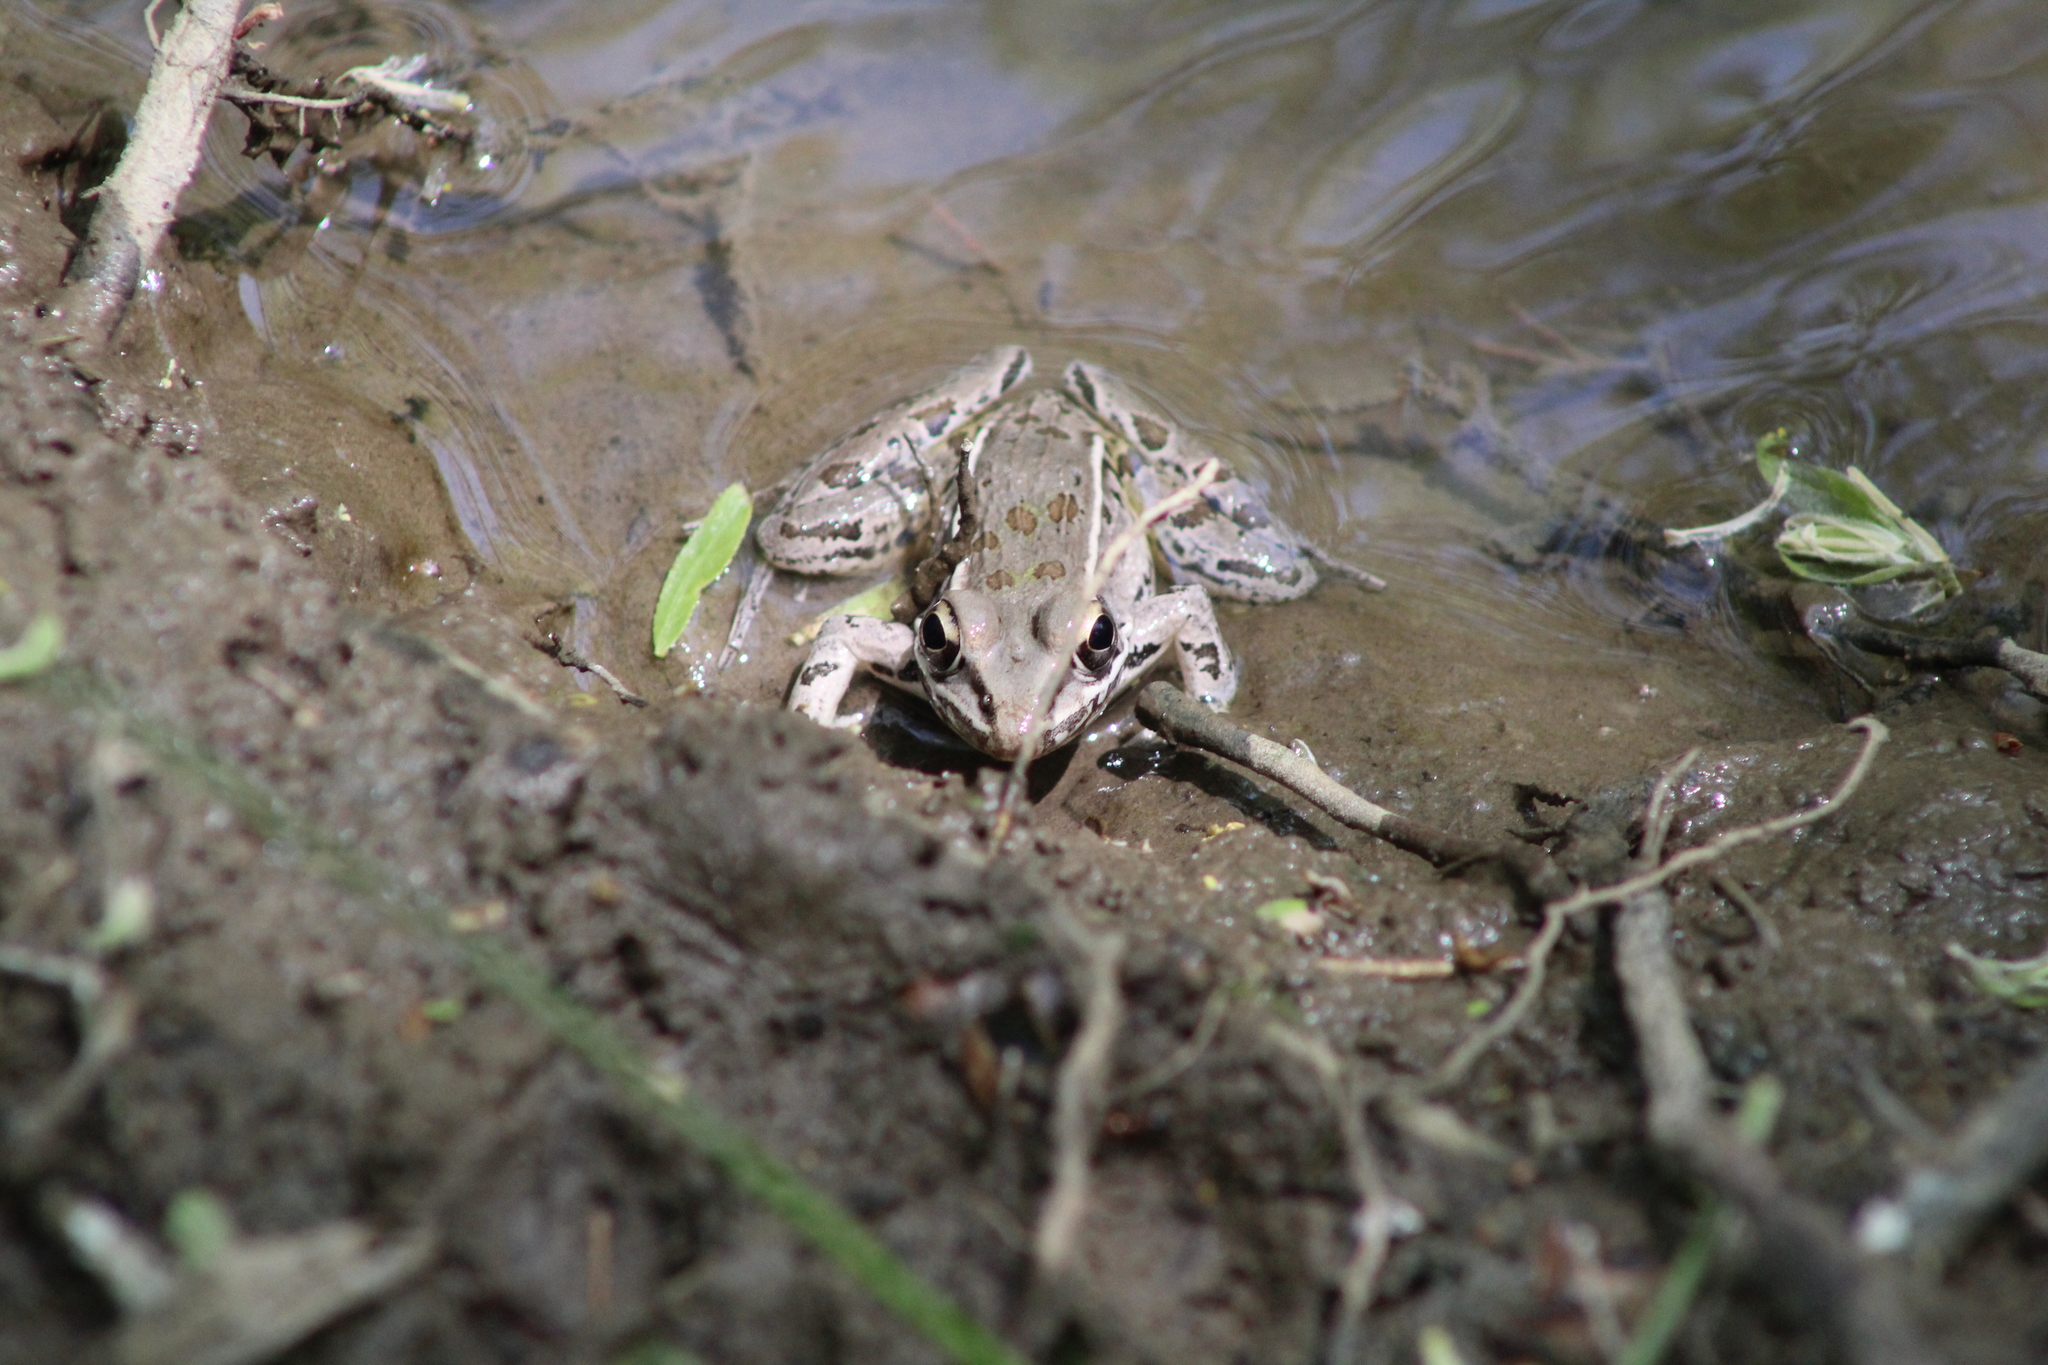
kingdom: Animalia
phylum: Chordata
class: Amphibia
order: Anura
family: Ranidae
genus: Lithobates
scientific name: Lithobates sphenocephalus
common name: Southern leopard frog
